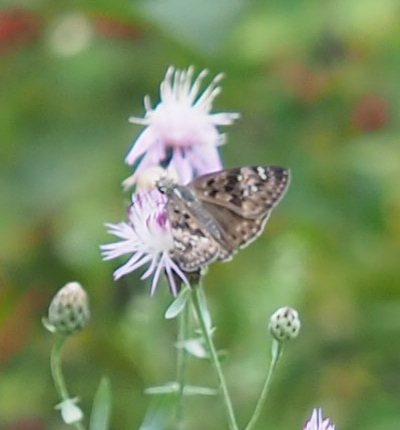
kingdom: Animalia
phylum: Arthropoda
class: Insecta
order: Lepidoptera
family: Hesperiidae
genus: Erynnis
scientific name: Erynnis horatius
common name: Horace's duskywing
